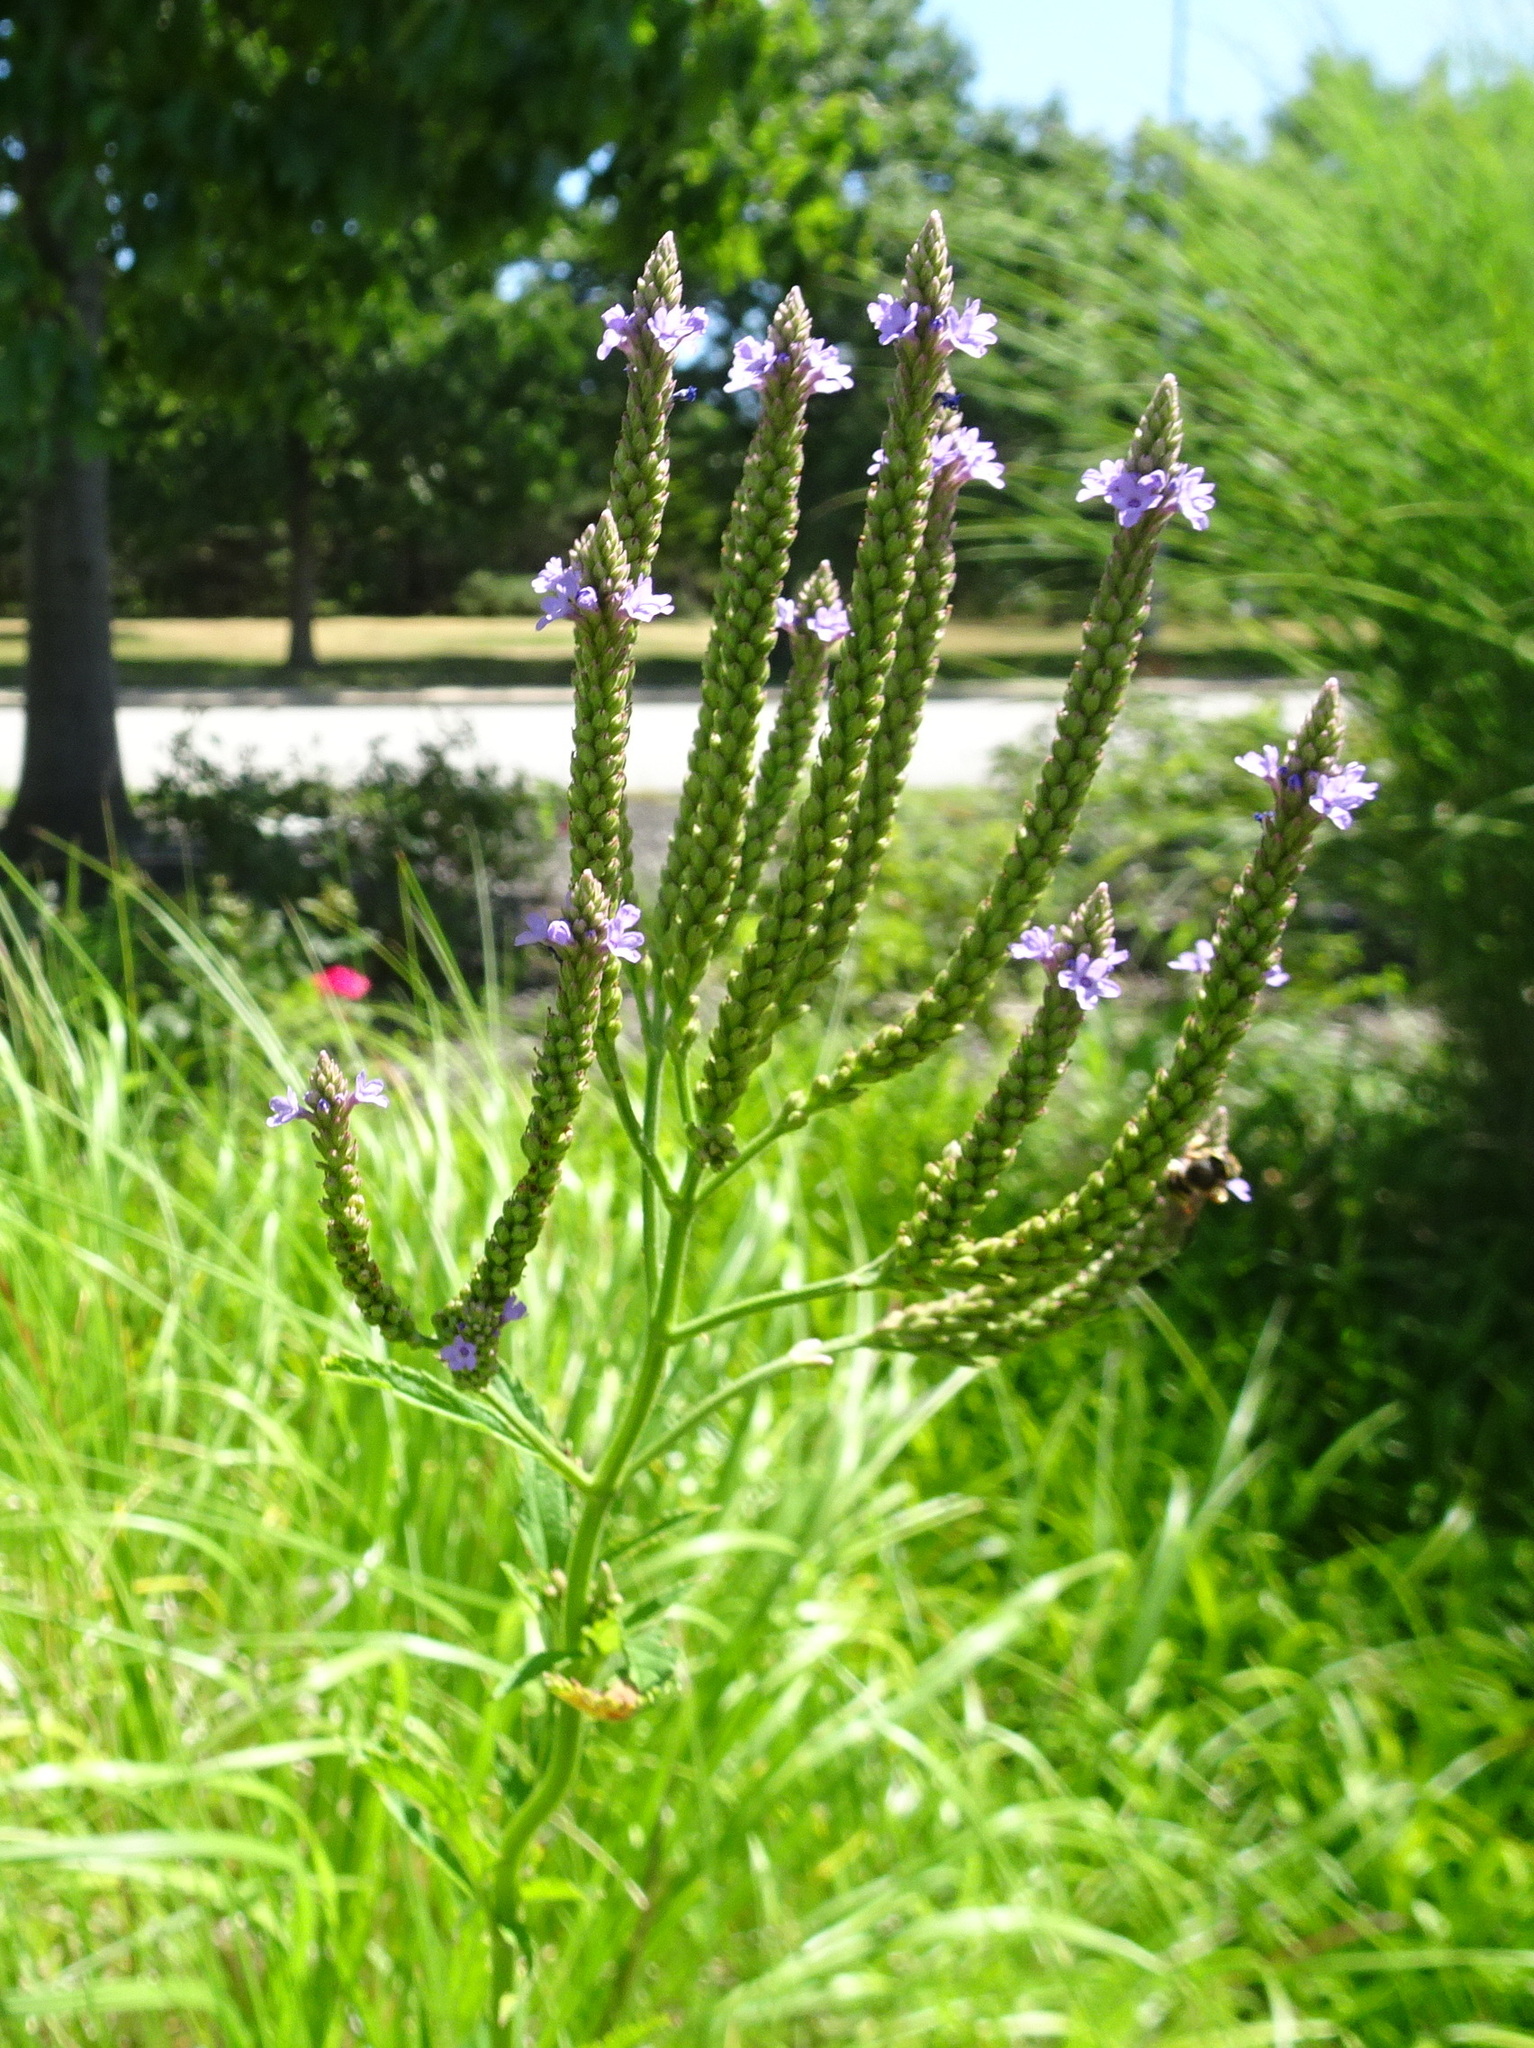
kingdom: Plantae
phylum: Tracheophyta
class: Magnoliopsida
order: Lamiales
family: Verbenaceae
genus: Verbena
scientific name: Verbena hastata
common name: American blue vervain
